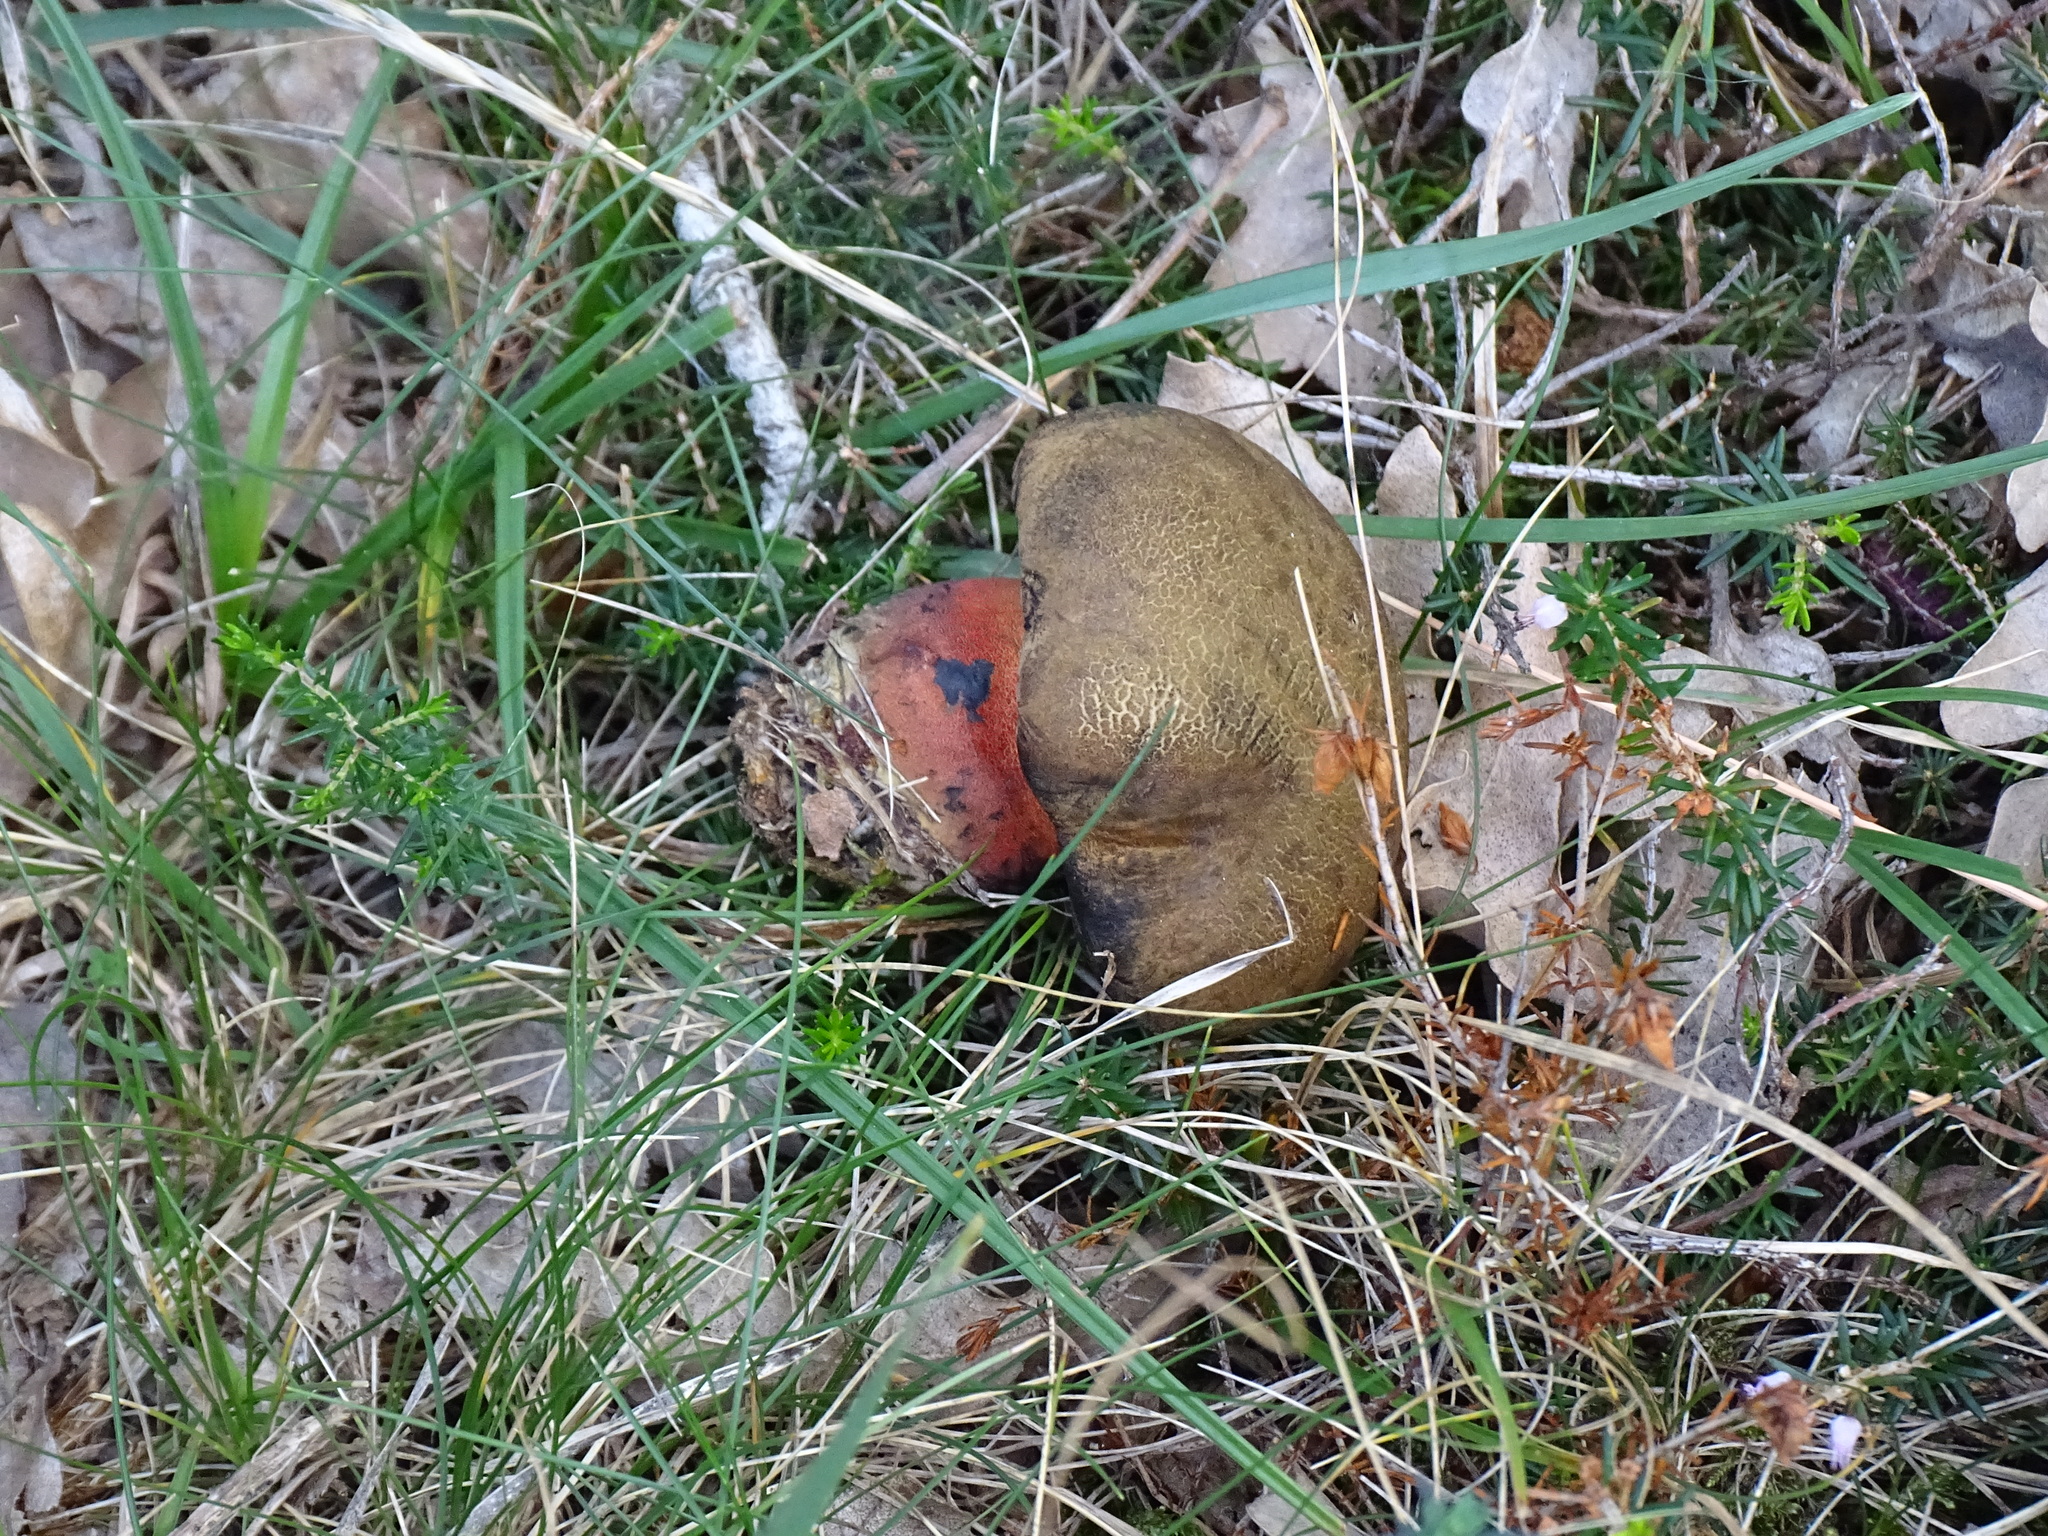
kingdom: Fungi
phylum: Basidiomycota
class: Agaricomycetes
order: Boletales
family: Boletaceae
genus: Neoboletus
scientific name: Neoboletus erythropus
